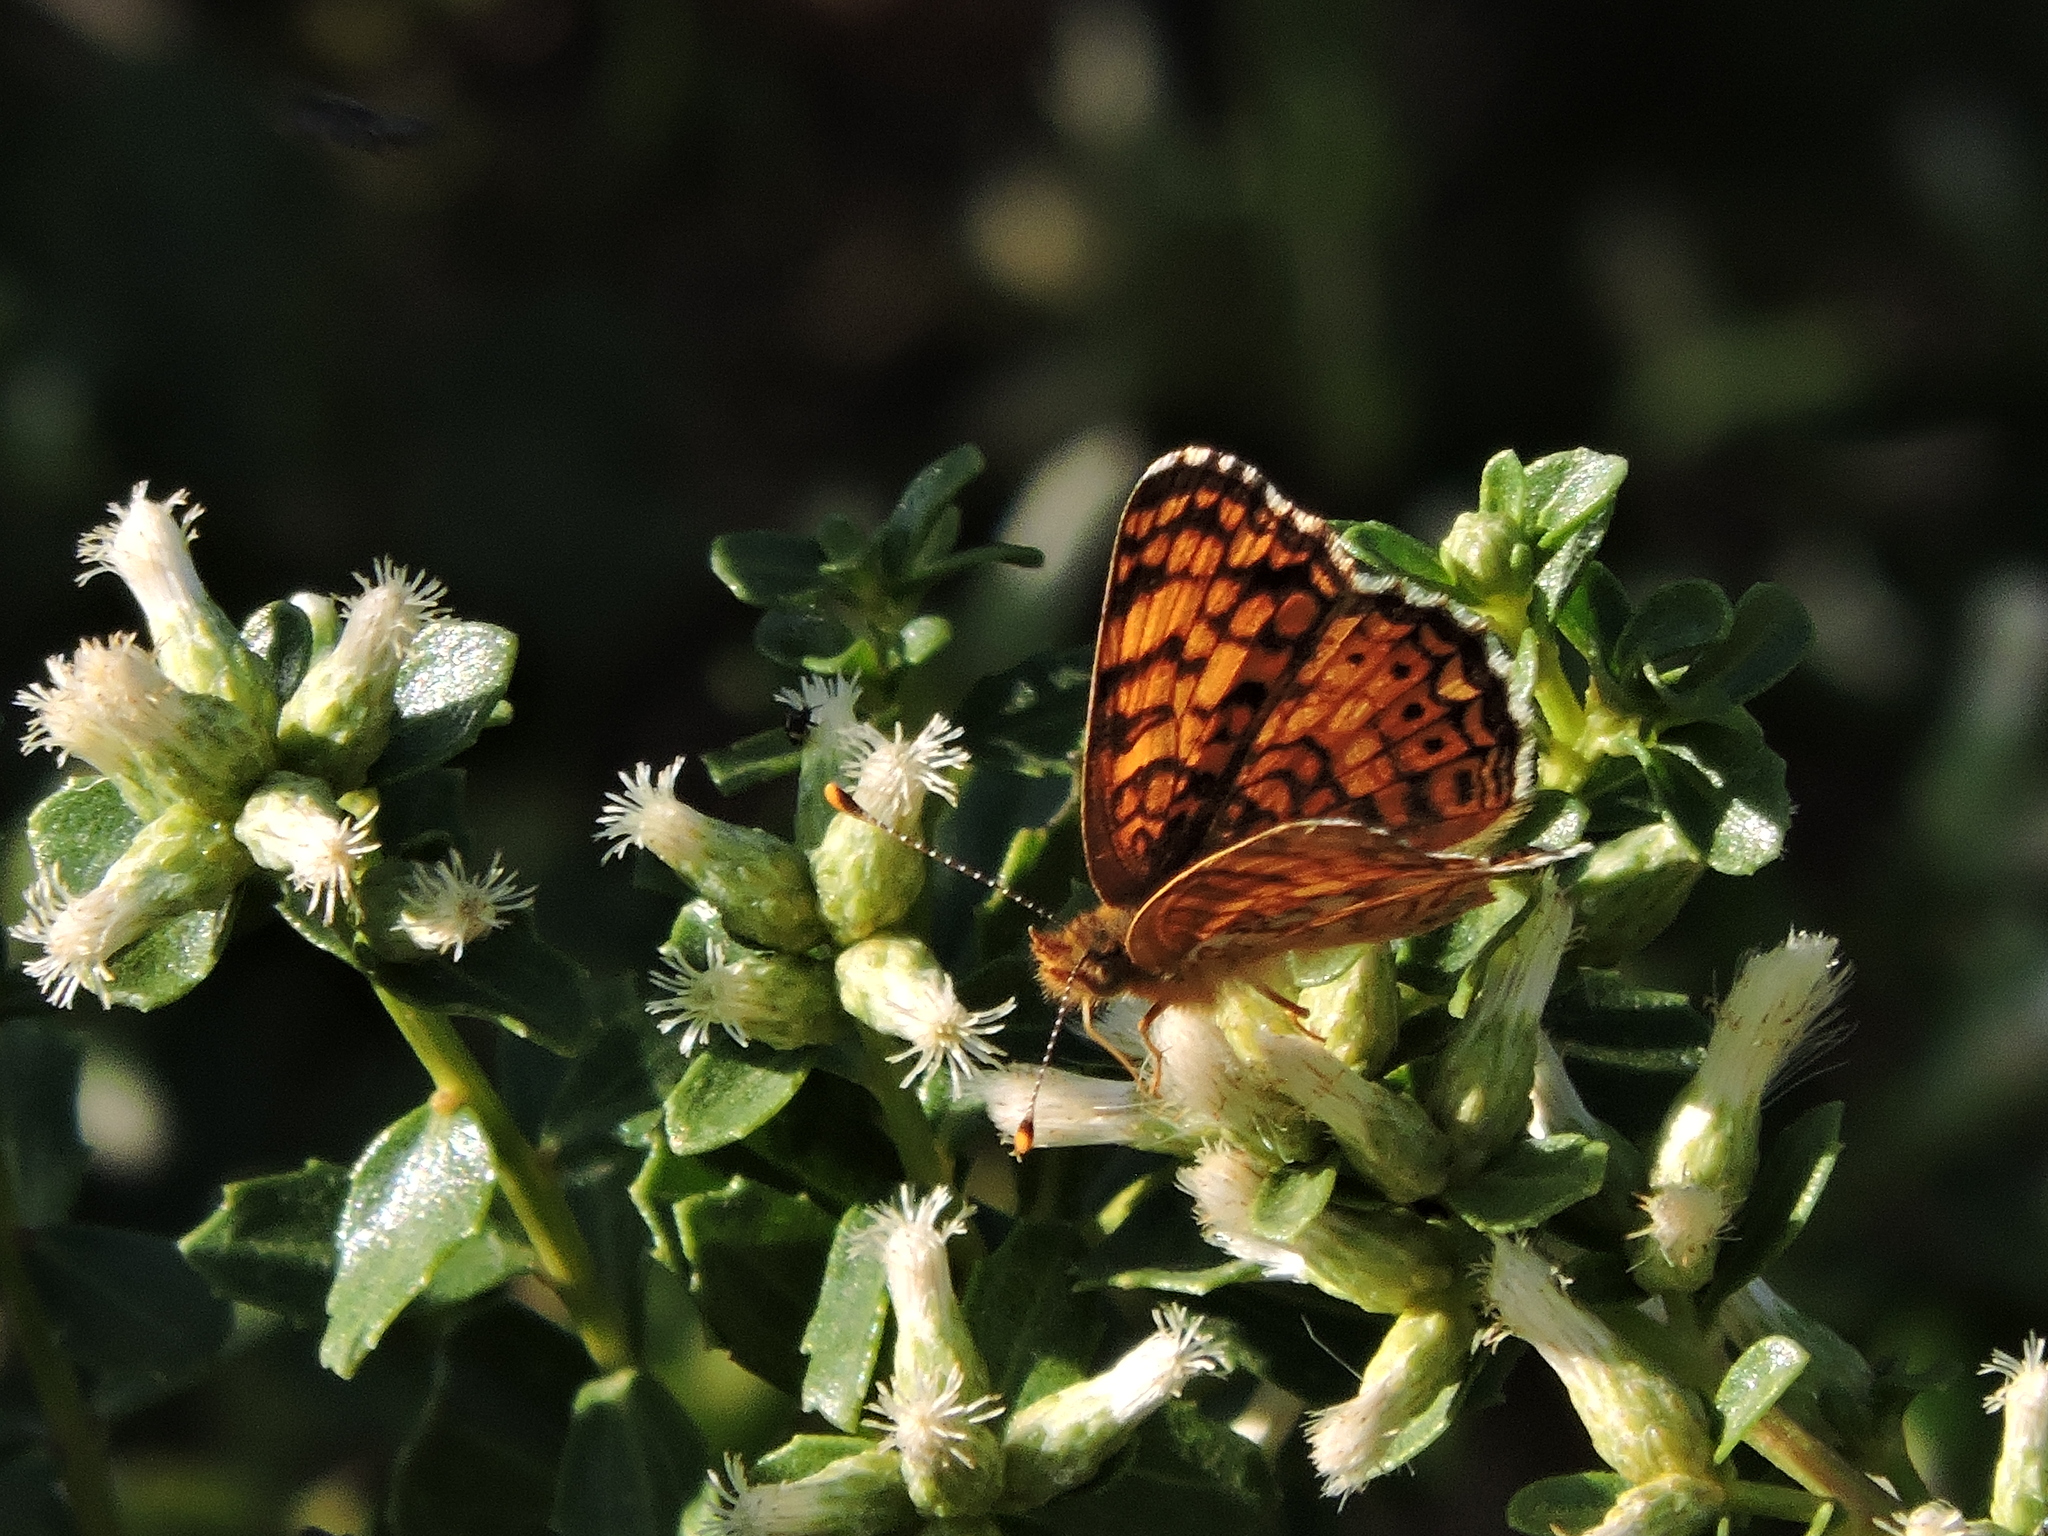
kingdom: Animalia
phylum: Arthropoda
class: Insecta
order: Lepidoptera
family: Nymphalidae
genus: Eresia
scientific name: Eresia aveyrona
